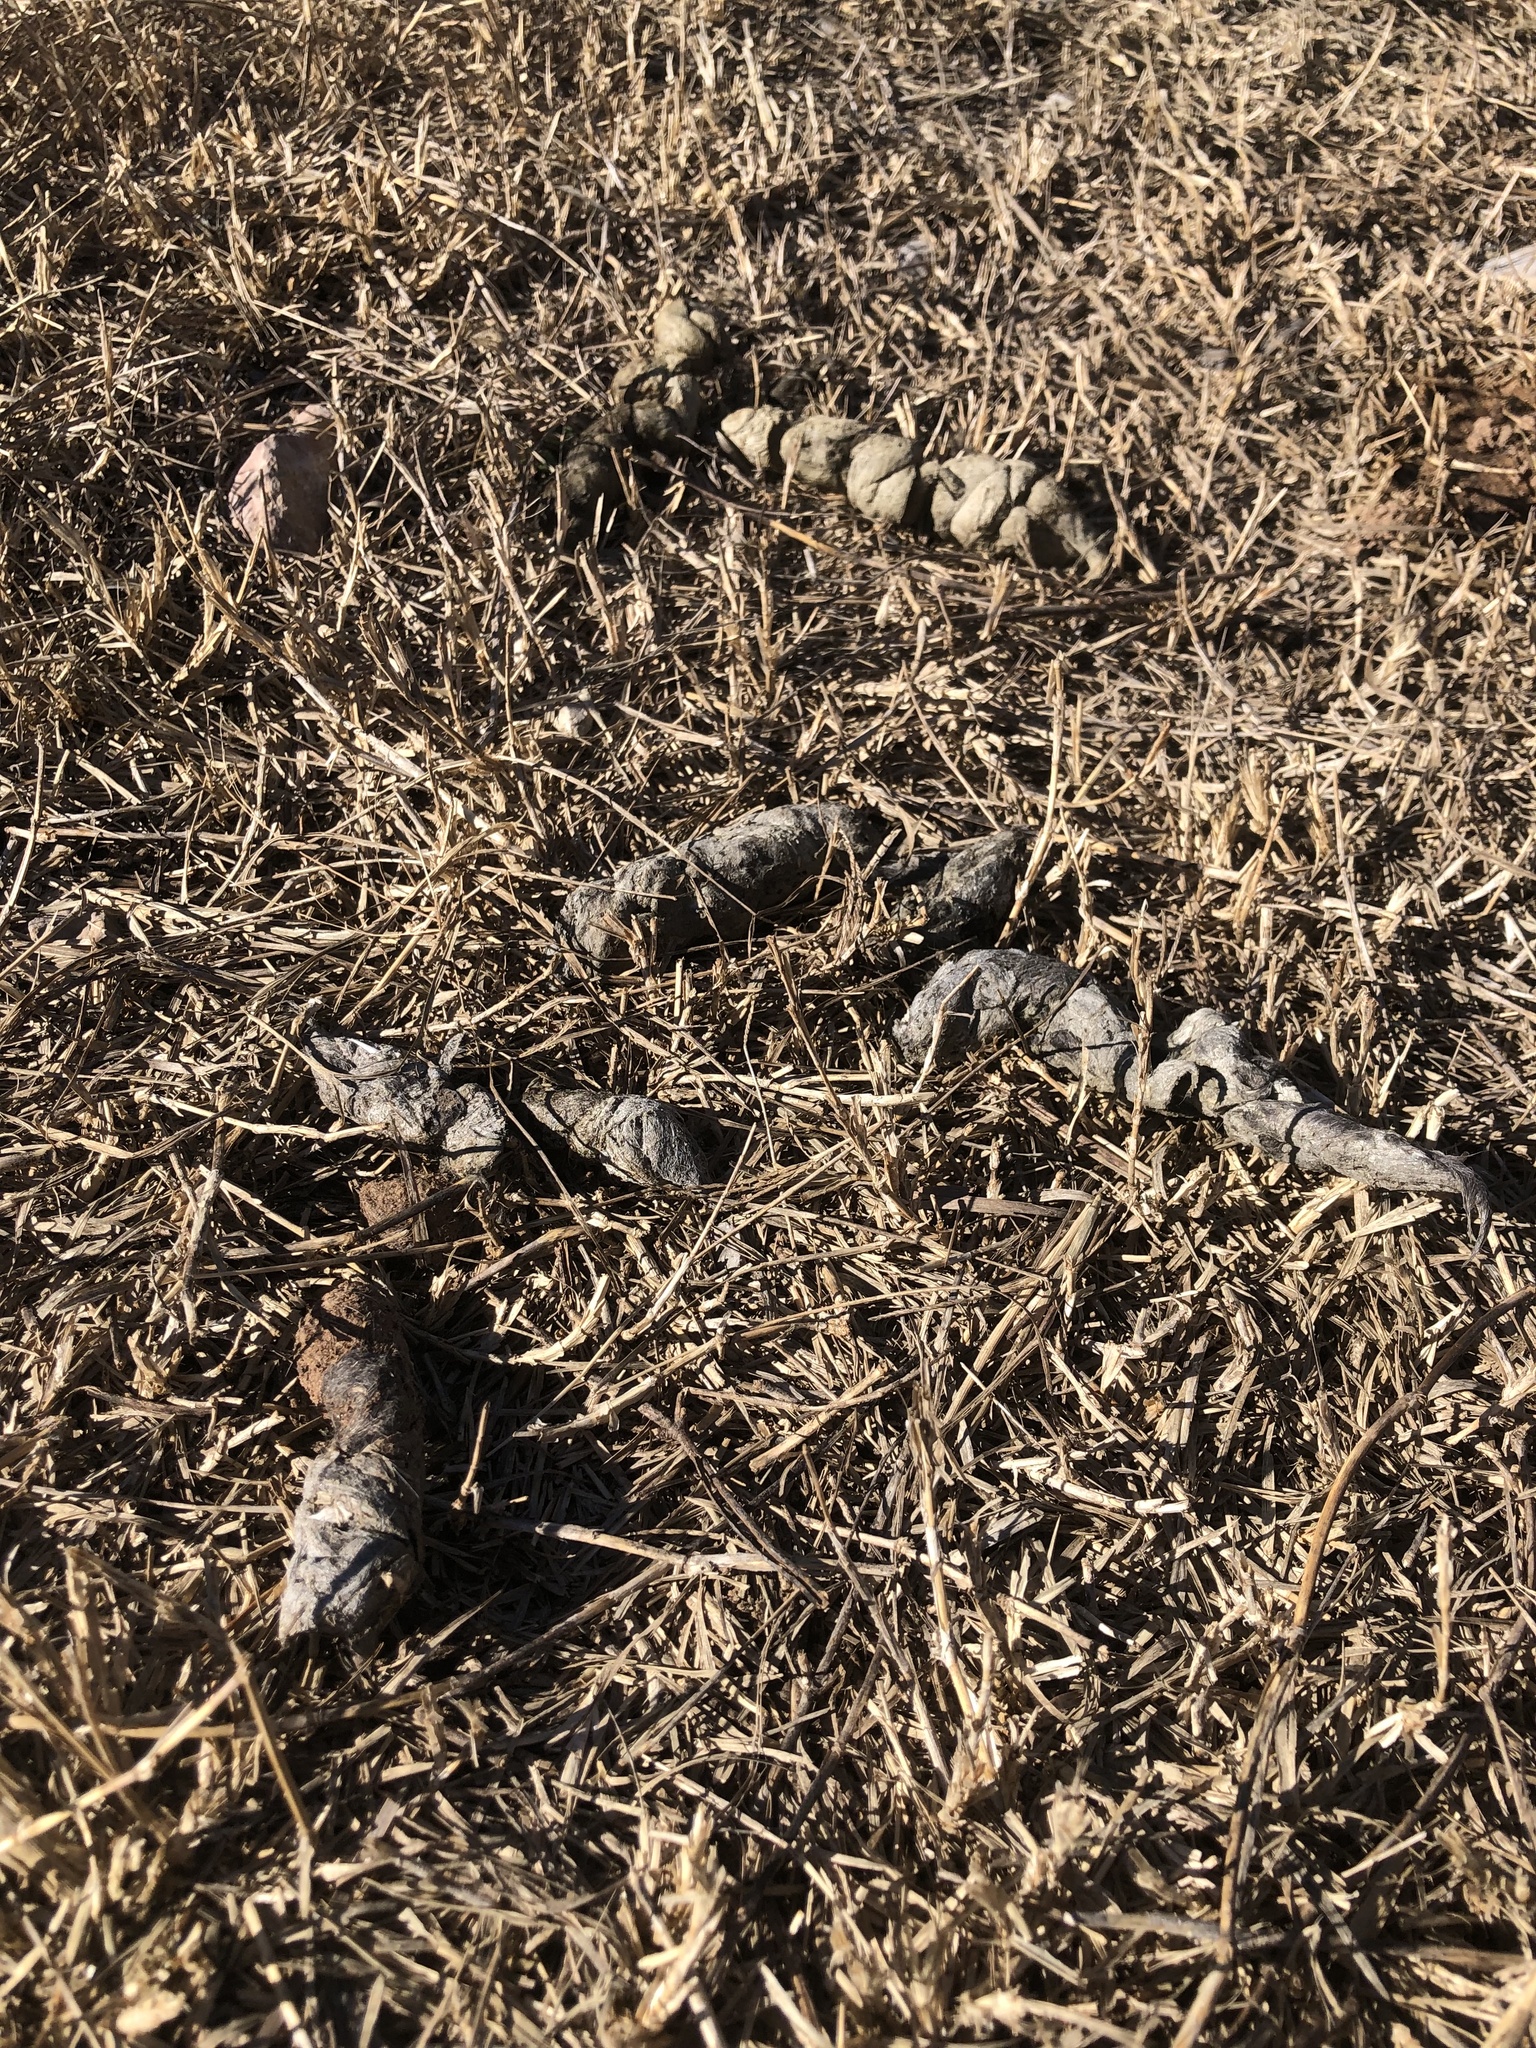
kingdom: Animalia
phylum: Chordata
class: Mammalia
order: Carnivora
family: Felidae
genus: Lynx
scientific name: Lynx rufus
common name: Bobcat
